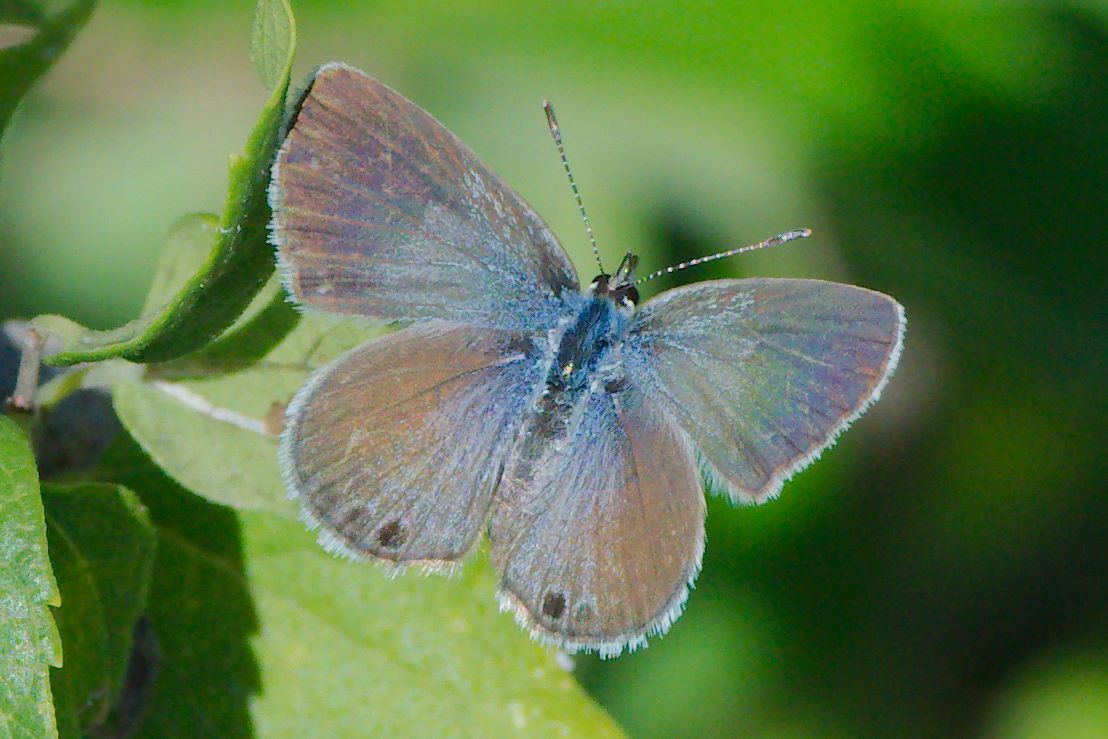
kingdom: Animalia
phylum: Arthropoda
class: Insecta
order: Lepidoptera
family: Lycaenidae
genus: Echinargus
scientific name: Echinargus isola
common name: Reakirt's blue
